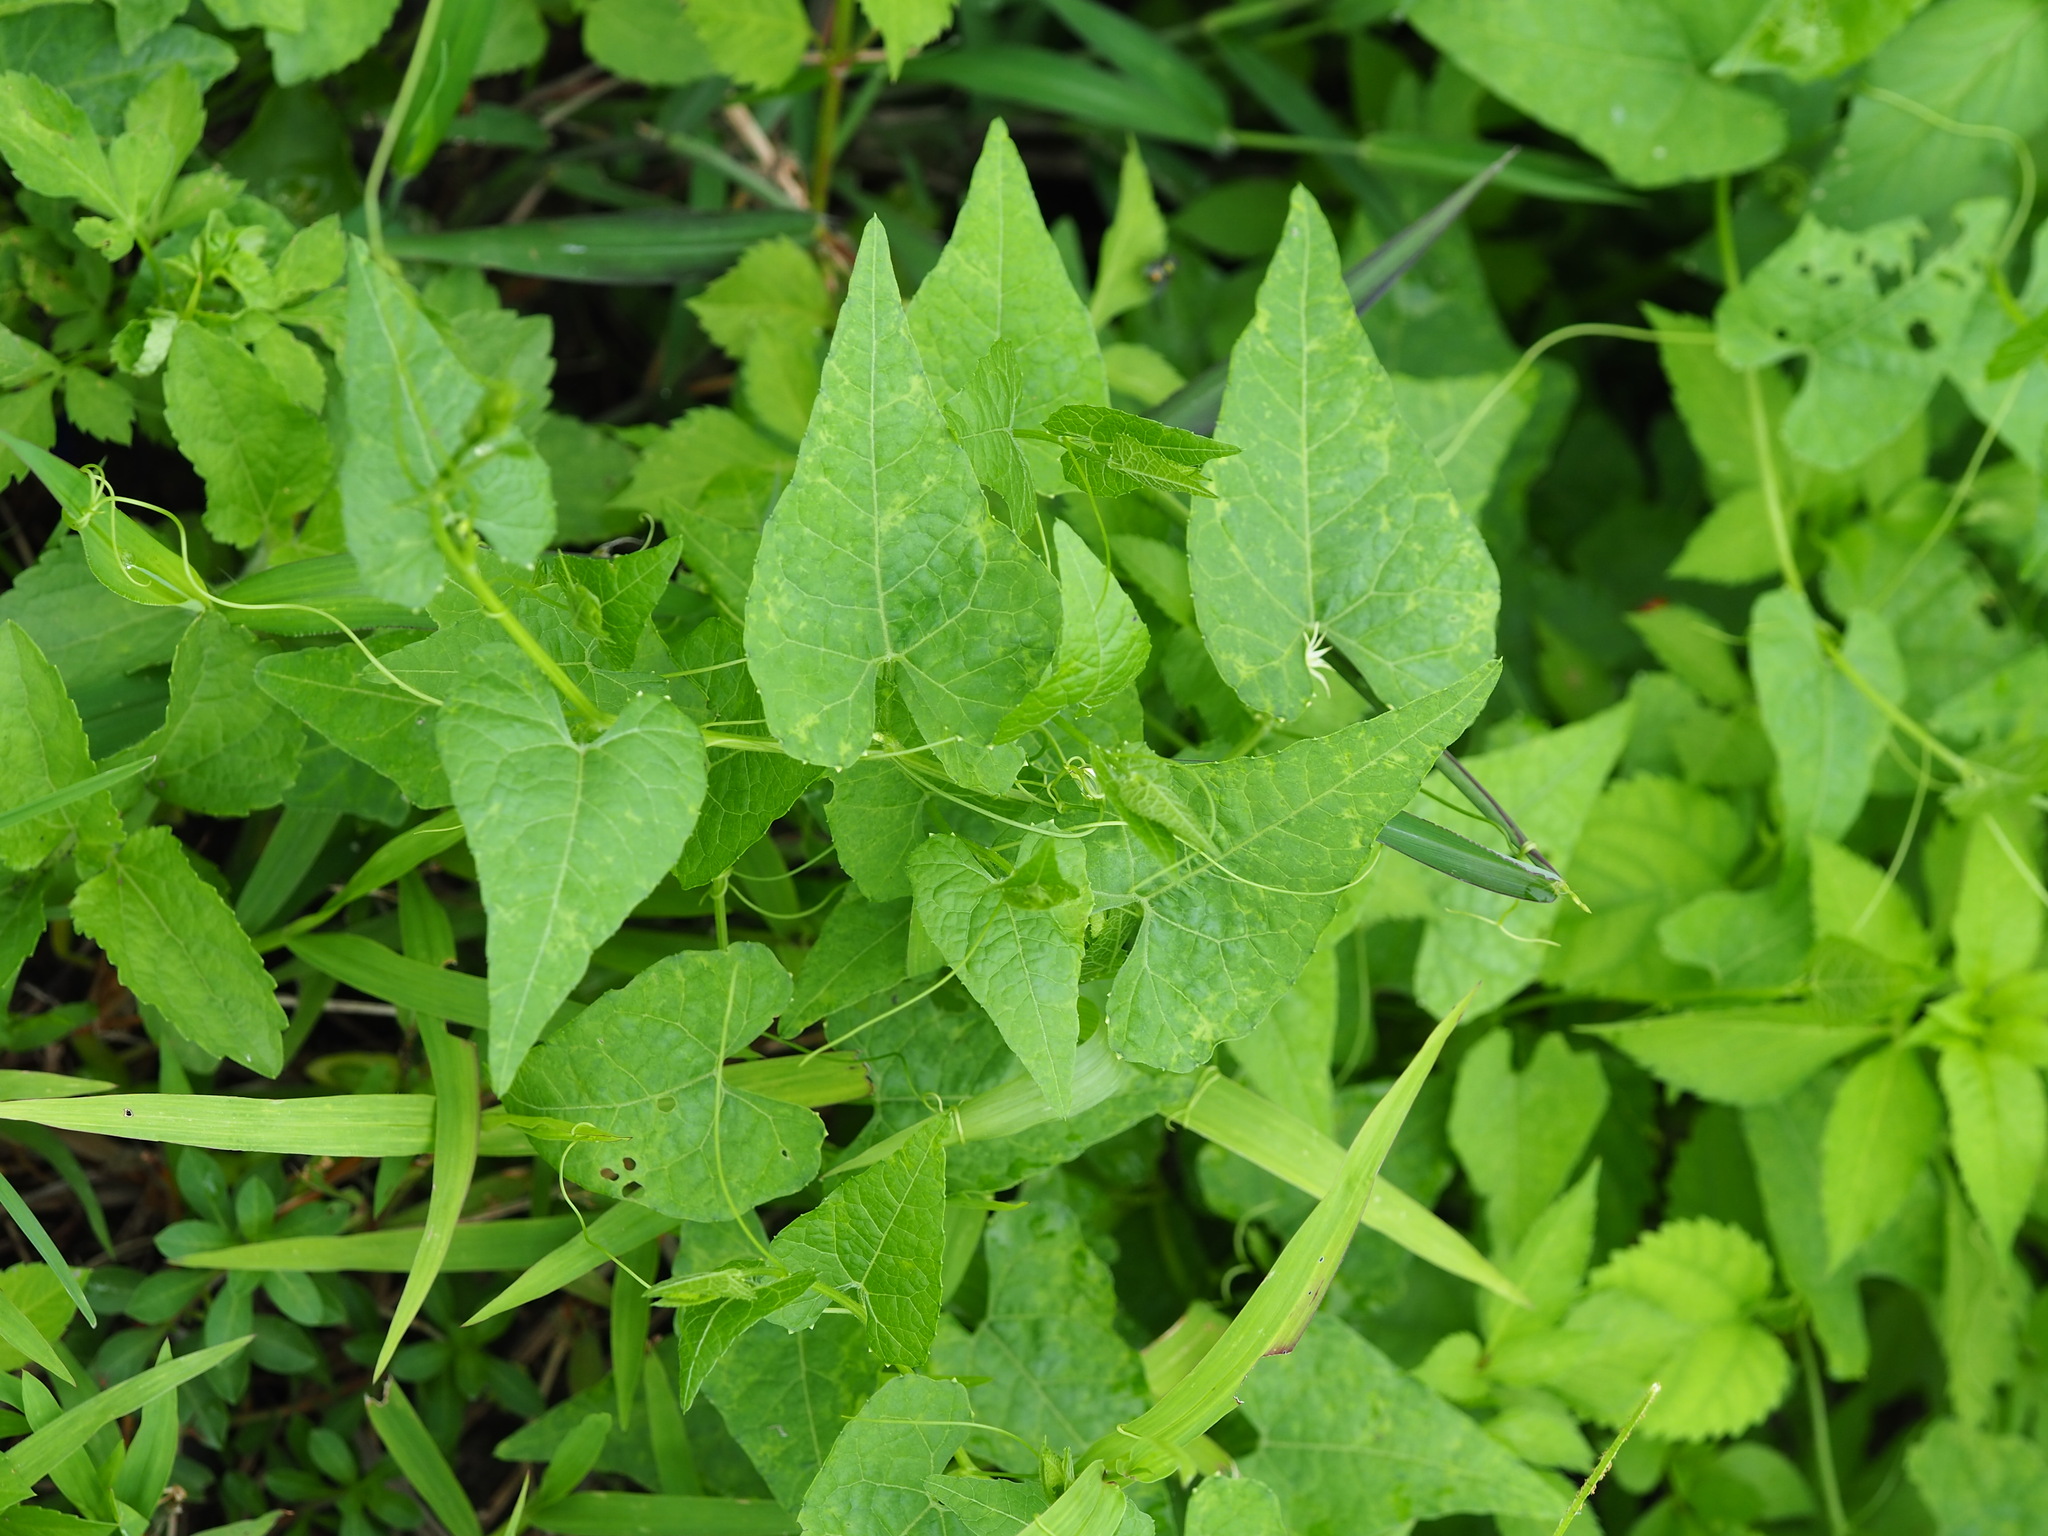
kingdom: Plantae
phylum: Tracheophyta
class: Magnoliopsida
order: Cucurbitales
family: Cucurbitaceae
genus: Actinostemma
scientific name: Actinostemma tenerum
